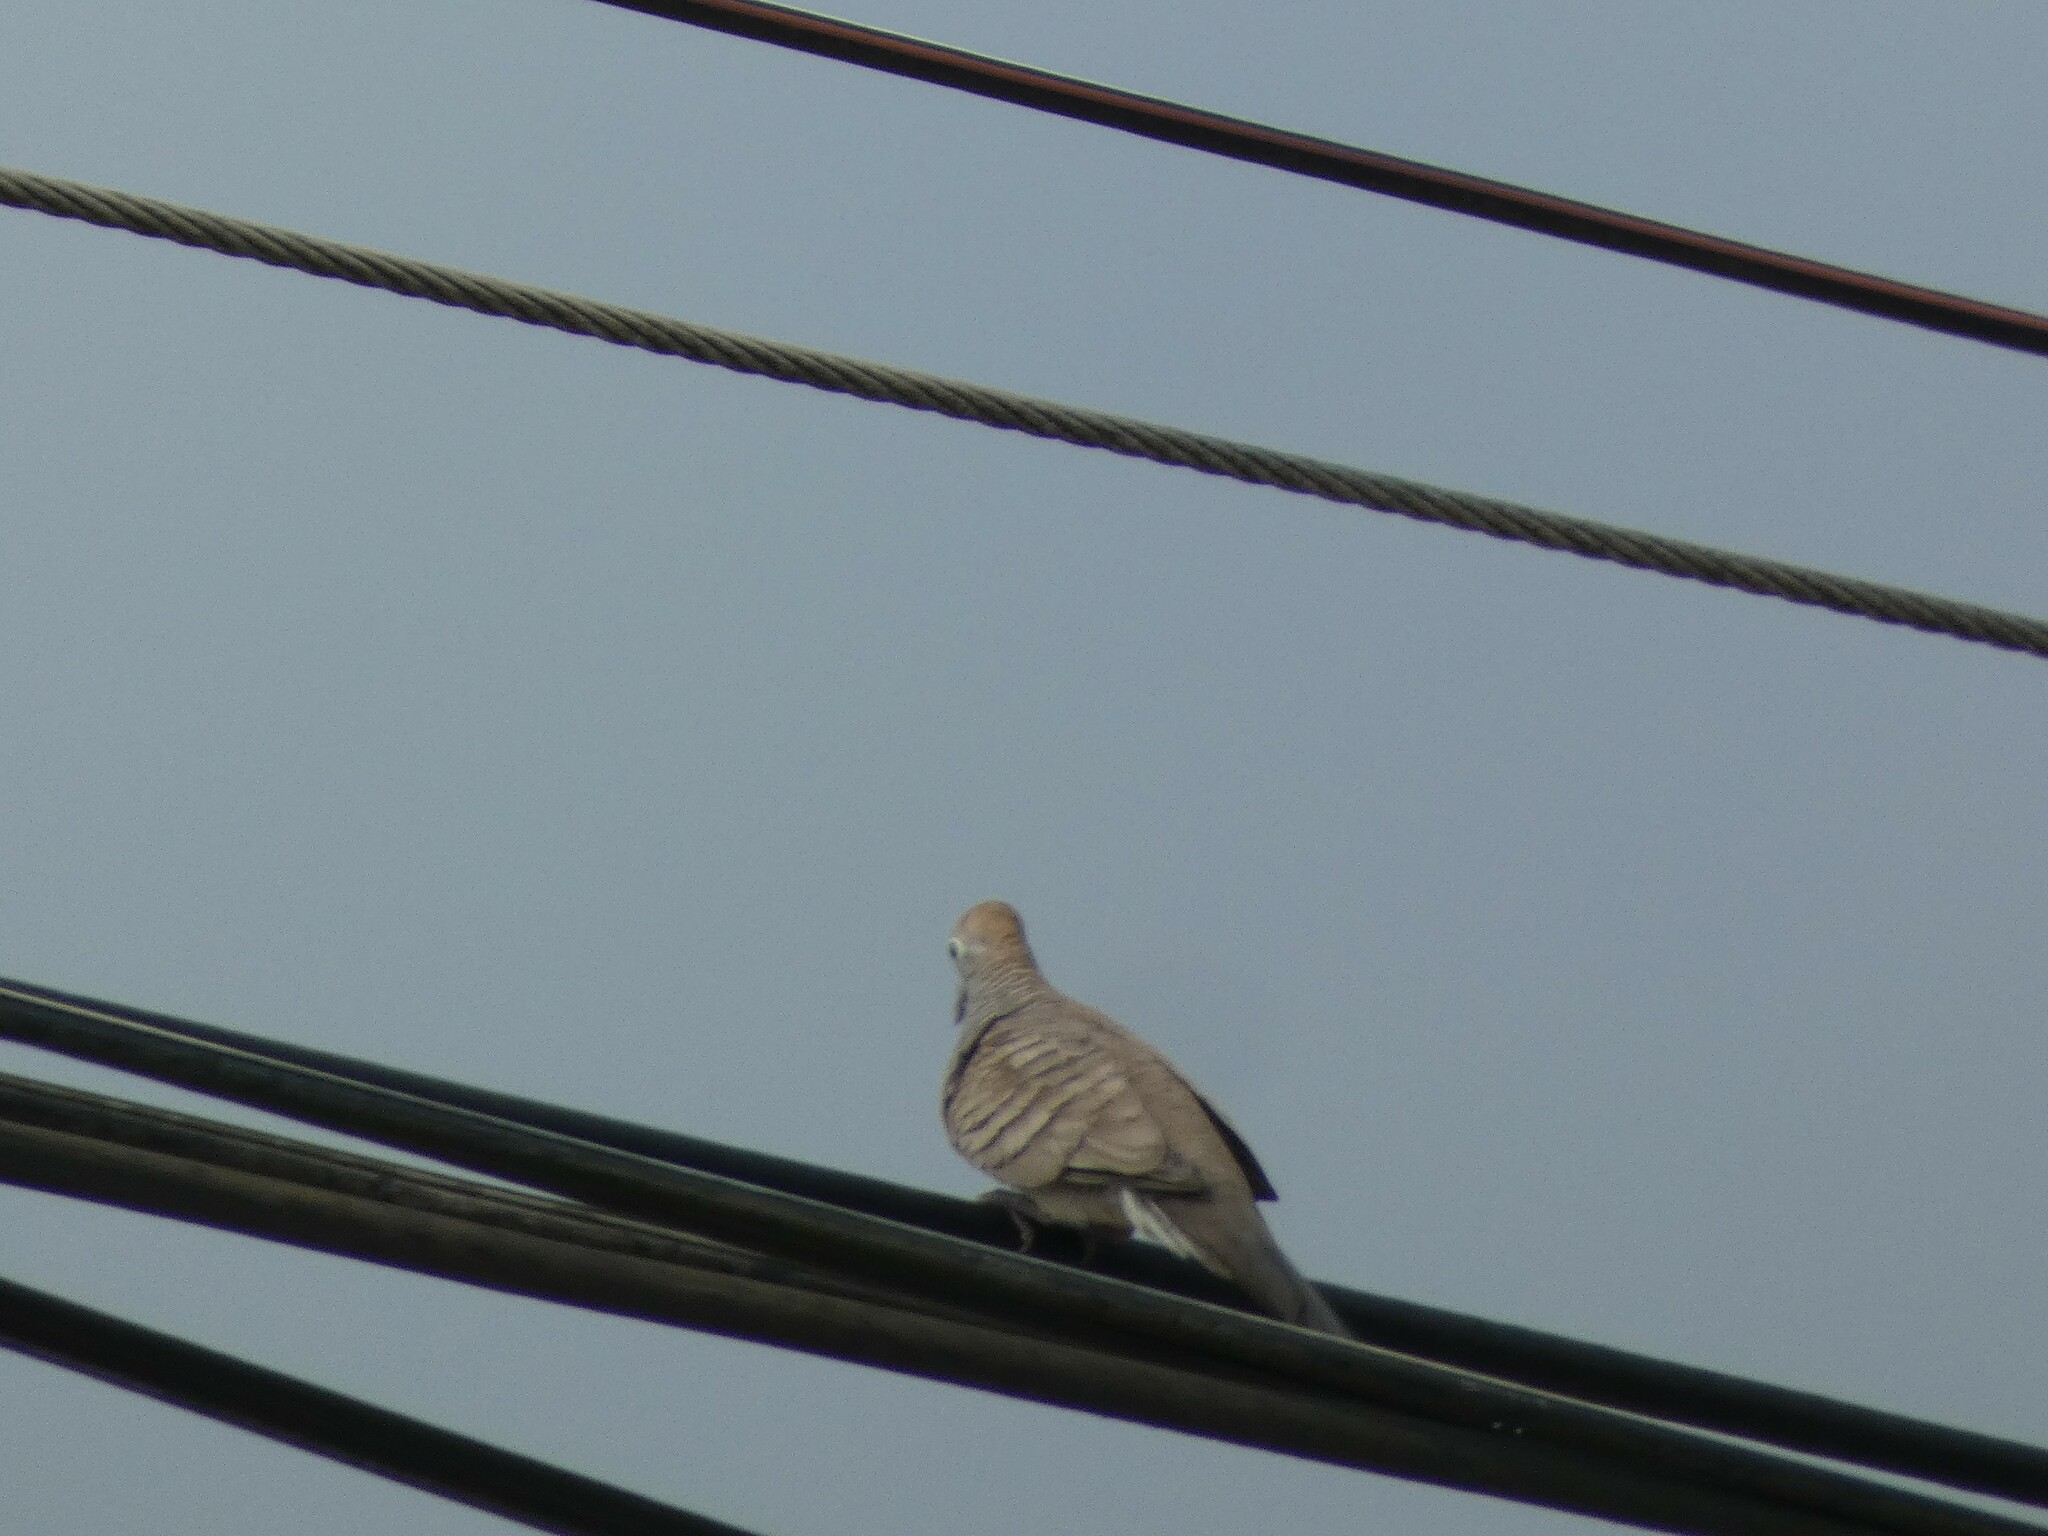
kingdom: Animalia
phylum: Chordata
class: Aves
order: Columbiformes
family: Columbidae
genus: Geopelia
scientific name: Geopelia striata
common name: Zebra dove
